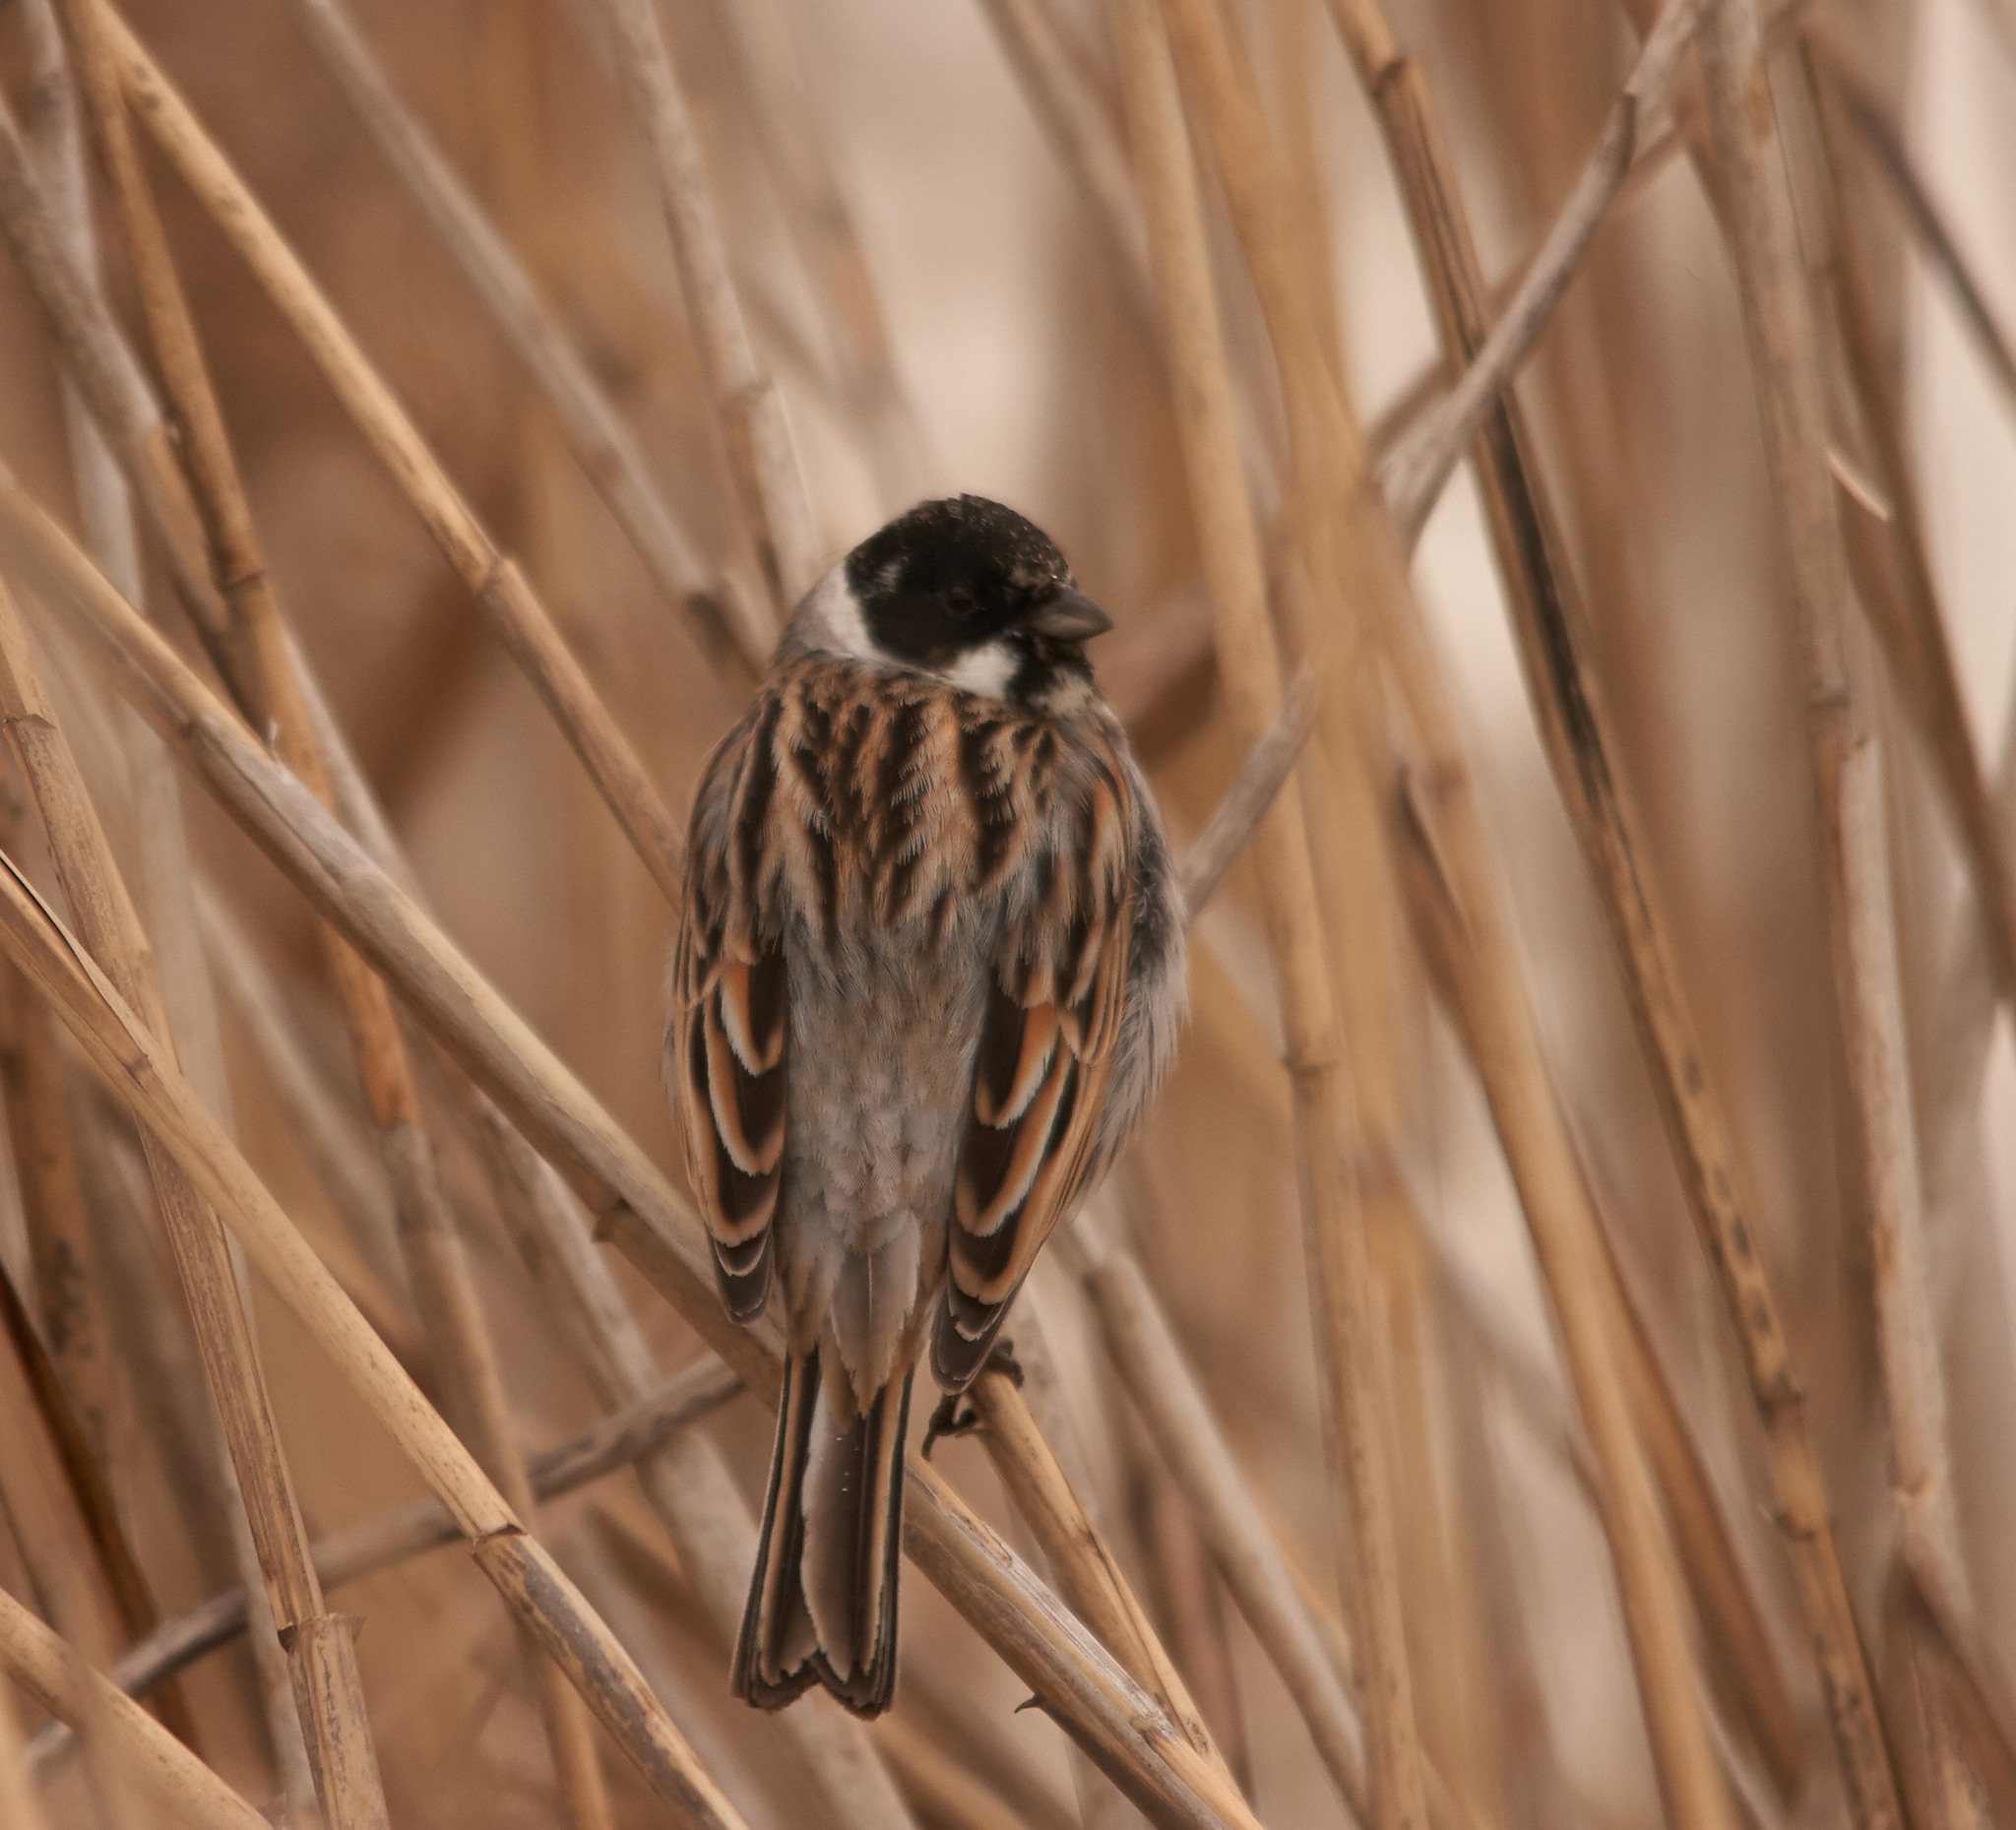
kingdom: Animalia
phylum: Chordata
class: Aves
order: Passeriformes
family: Emberizidae
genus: Emberiza
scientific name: Emberiza schoeniclus
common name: Reed bunting
